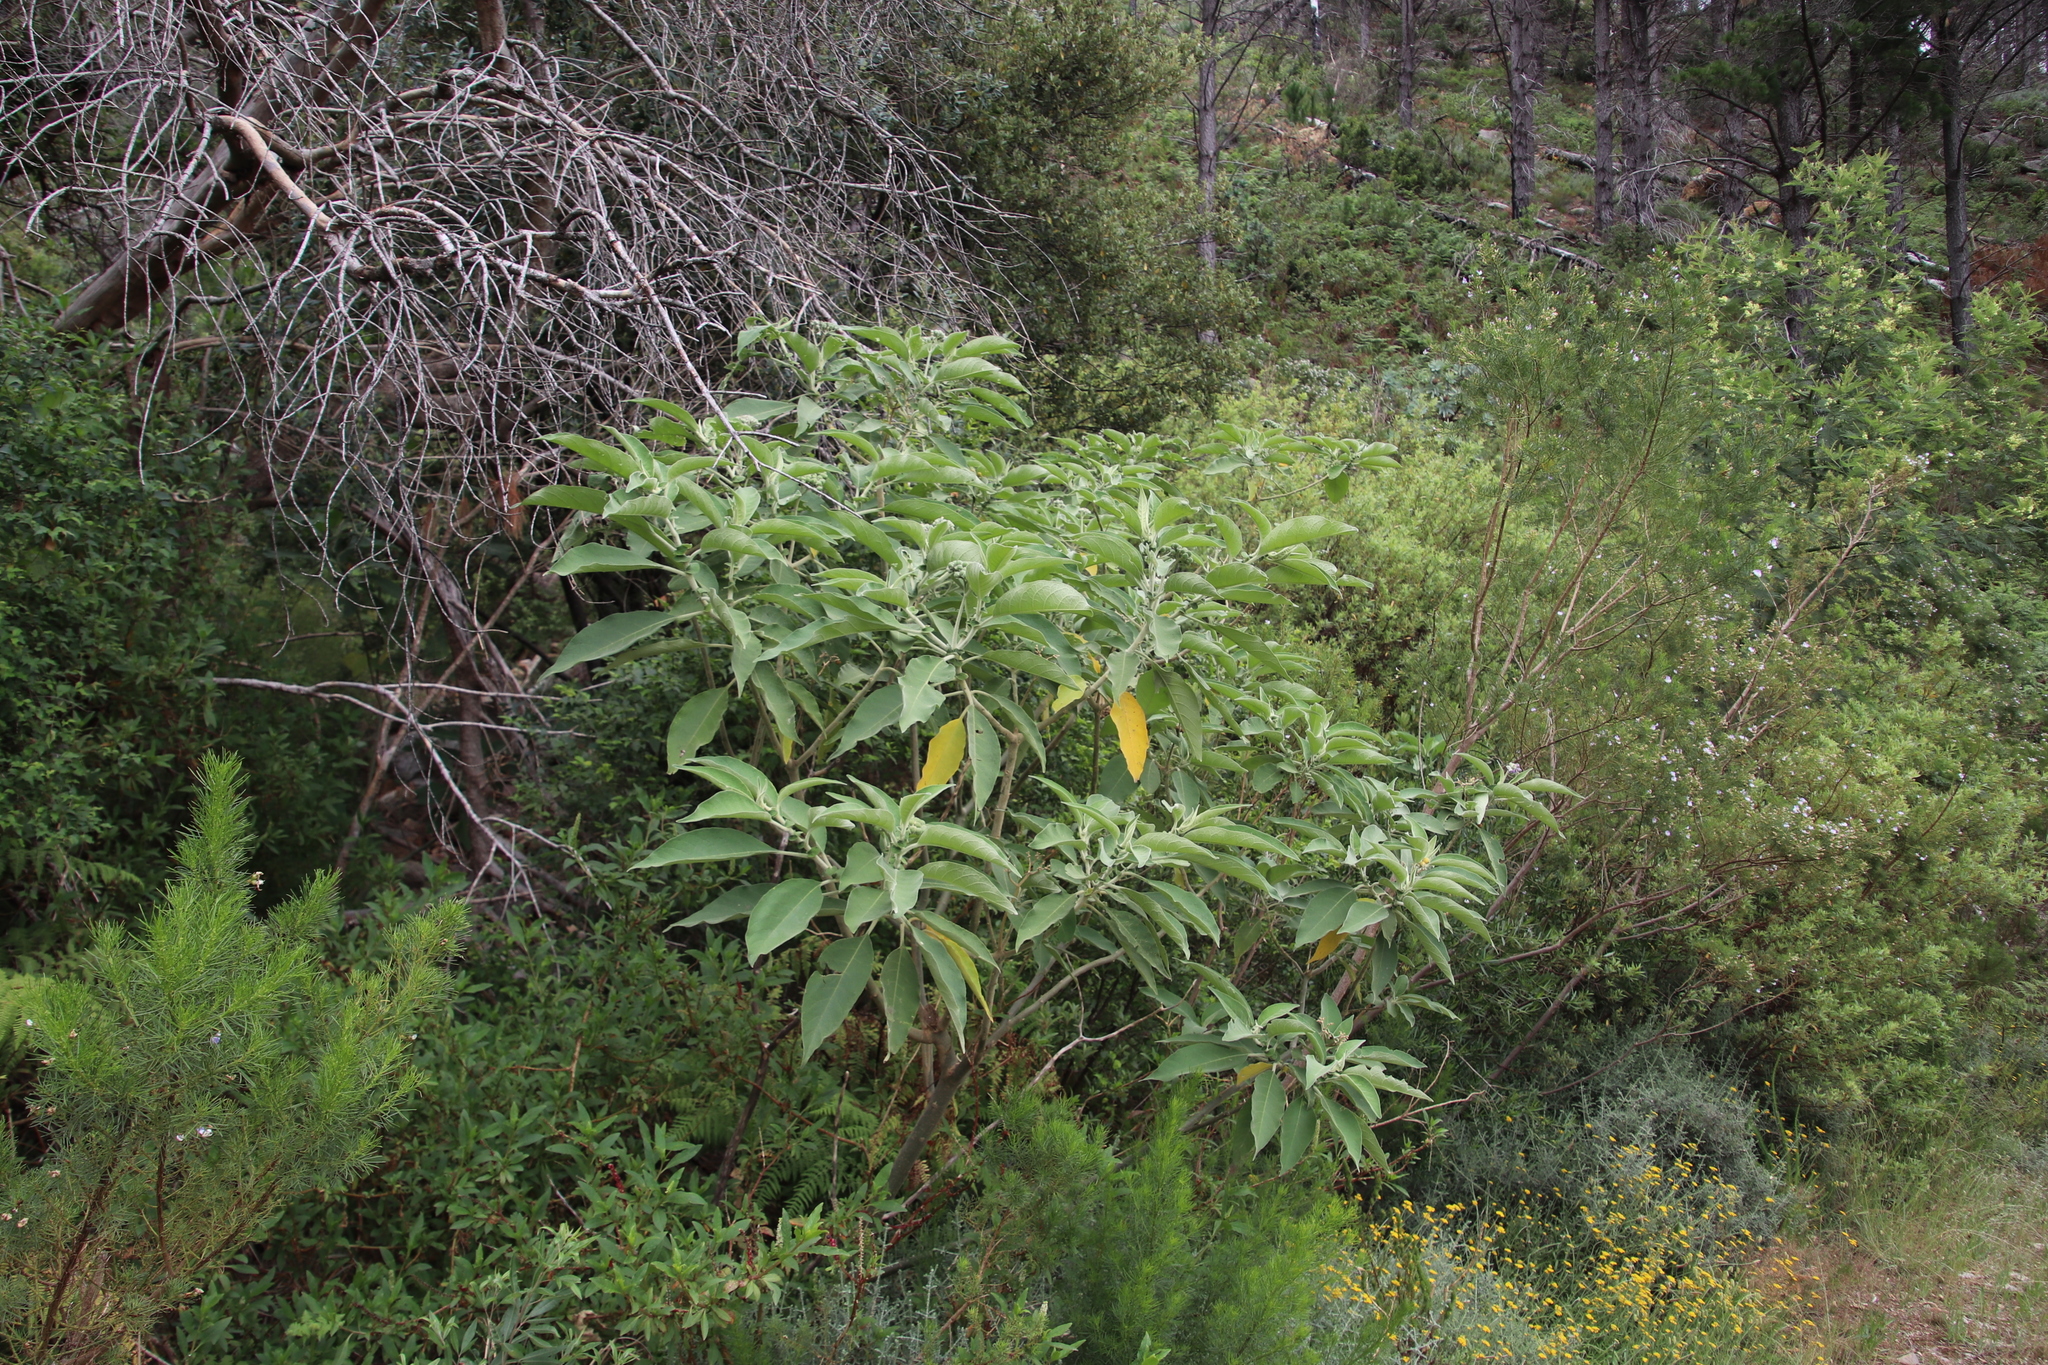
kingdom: Plantae
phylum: Tracheophyta
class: Magnoliopsida
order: Solanales
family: Solanaceae
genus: Solanum
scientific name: Solanum mauritianum
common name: Earleaf nightshade
